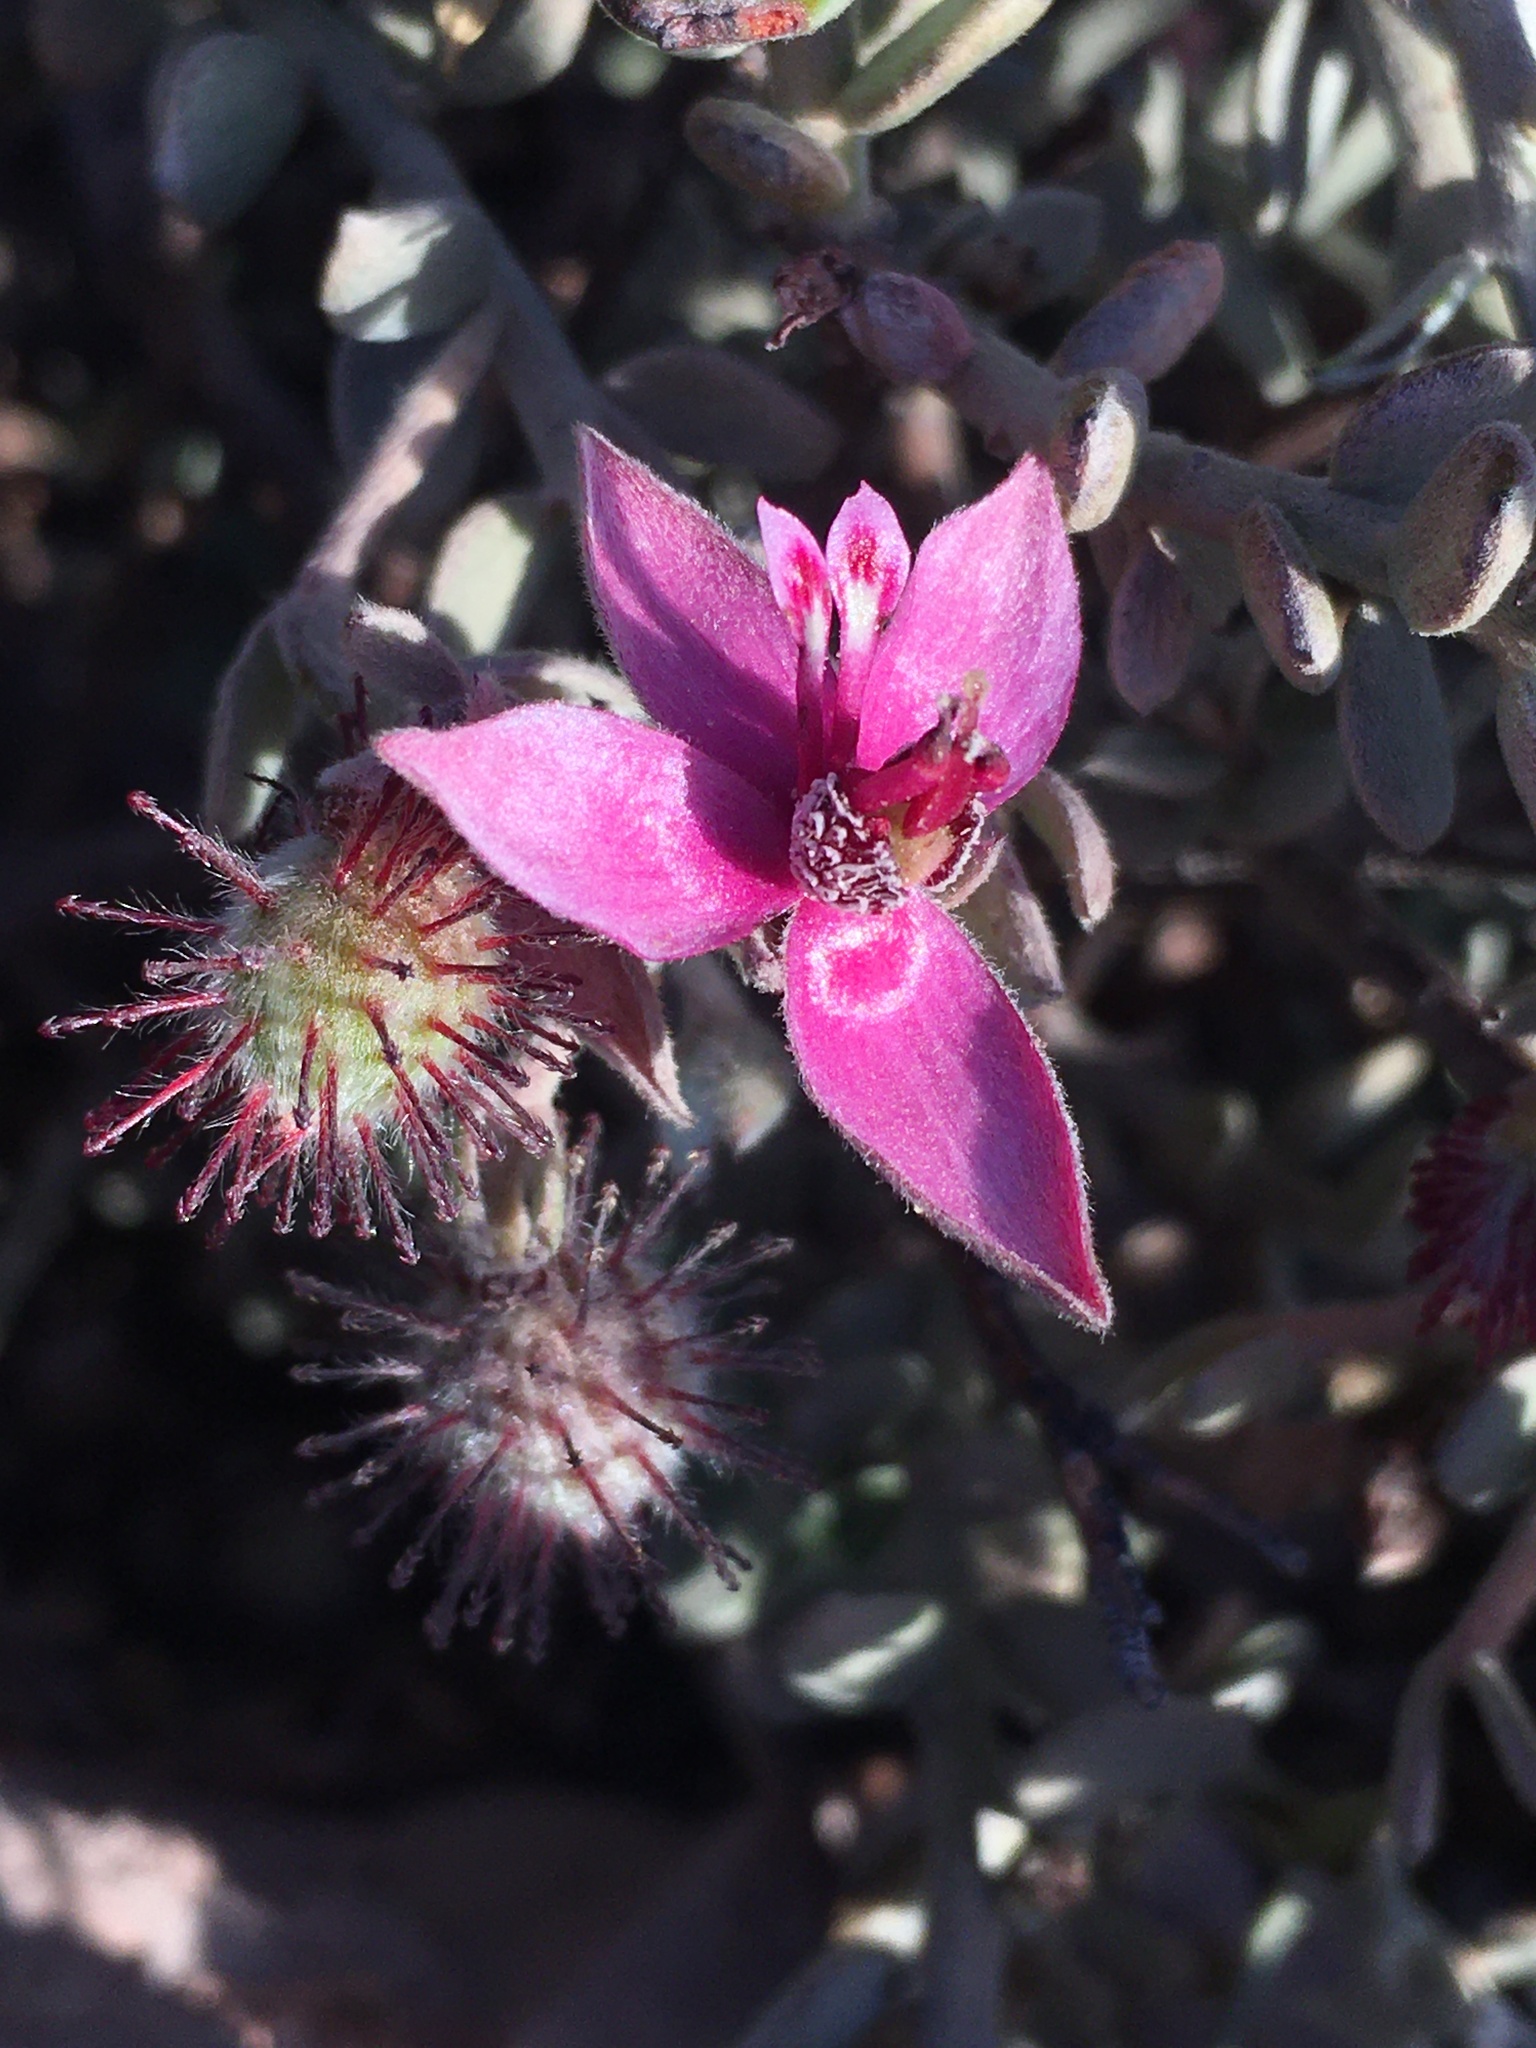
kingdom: Plantae
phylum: Tracheophyta
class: Magnoliopsida
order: Zygophyllales
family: Krameriaceae
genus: Krameria
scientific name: Krameria lappacea
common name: Rhatany
